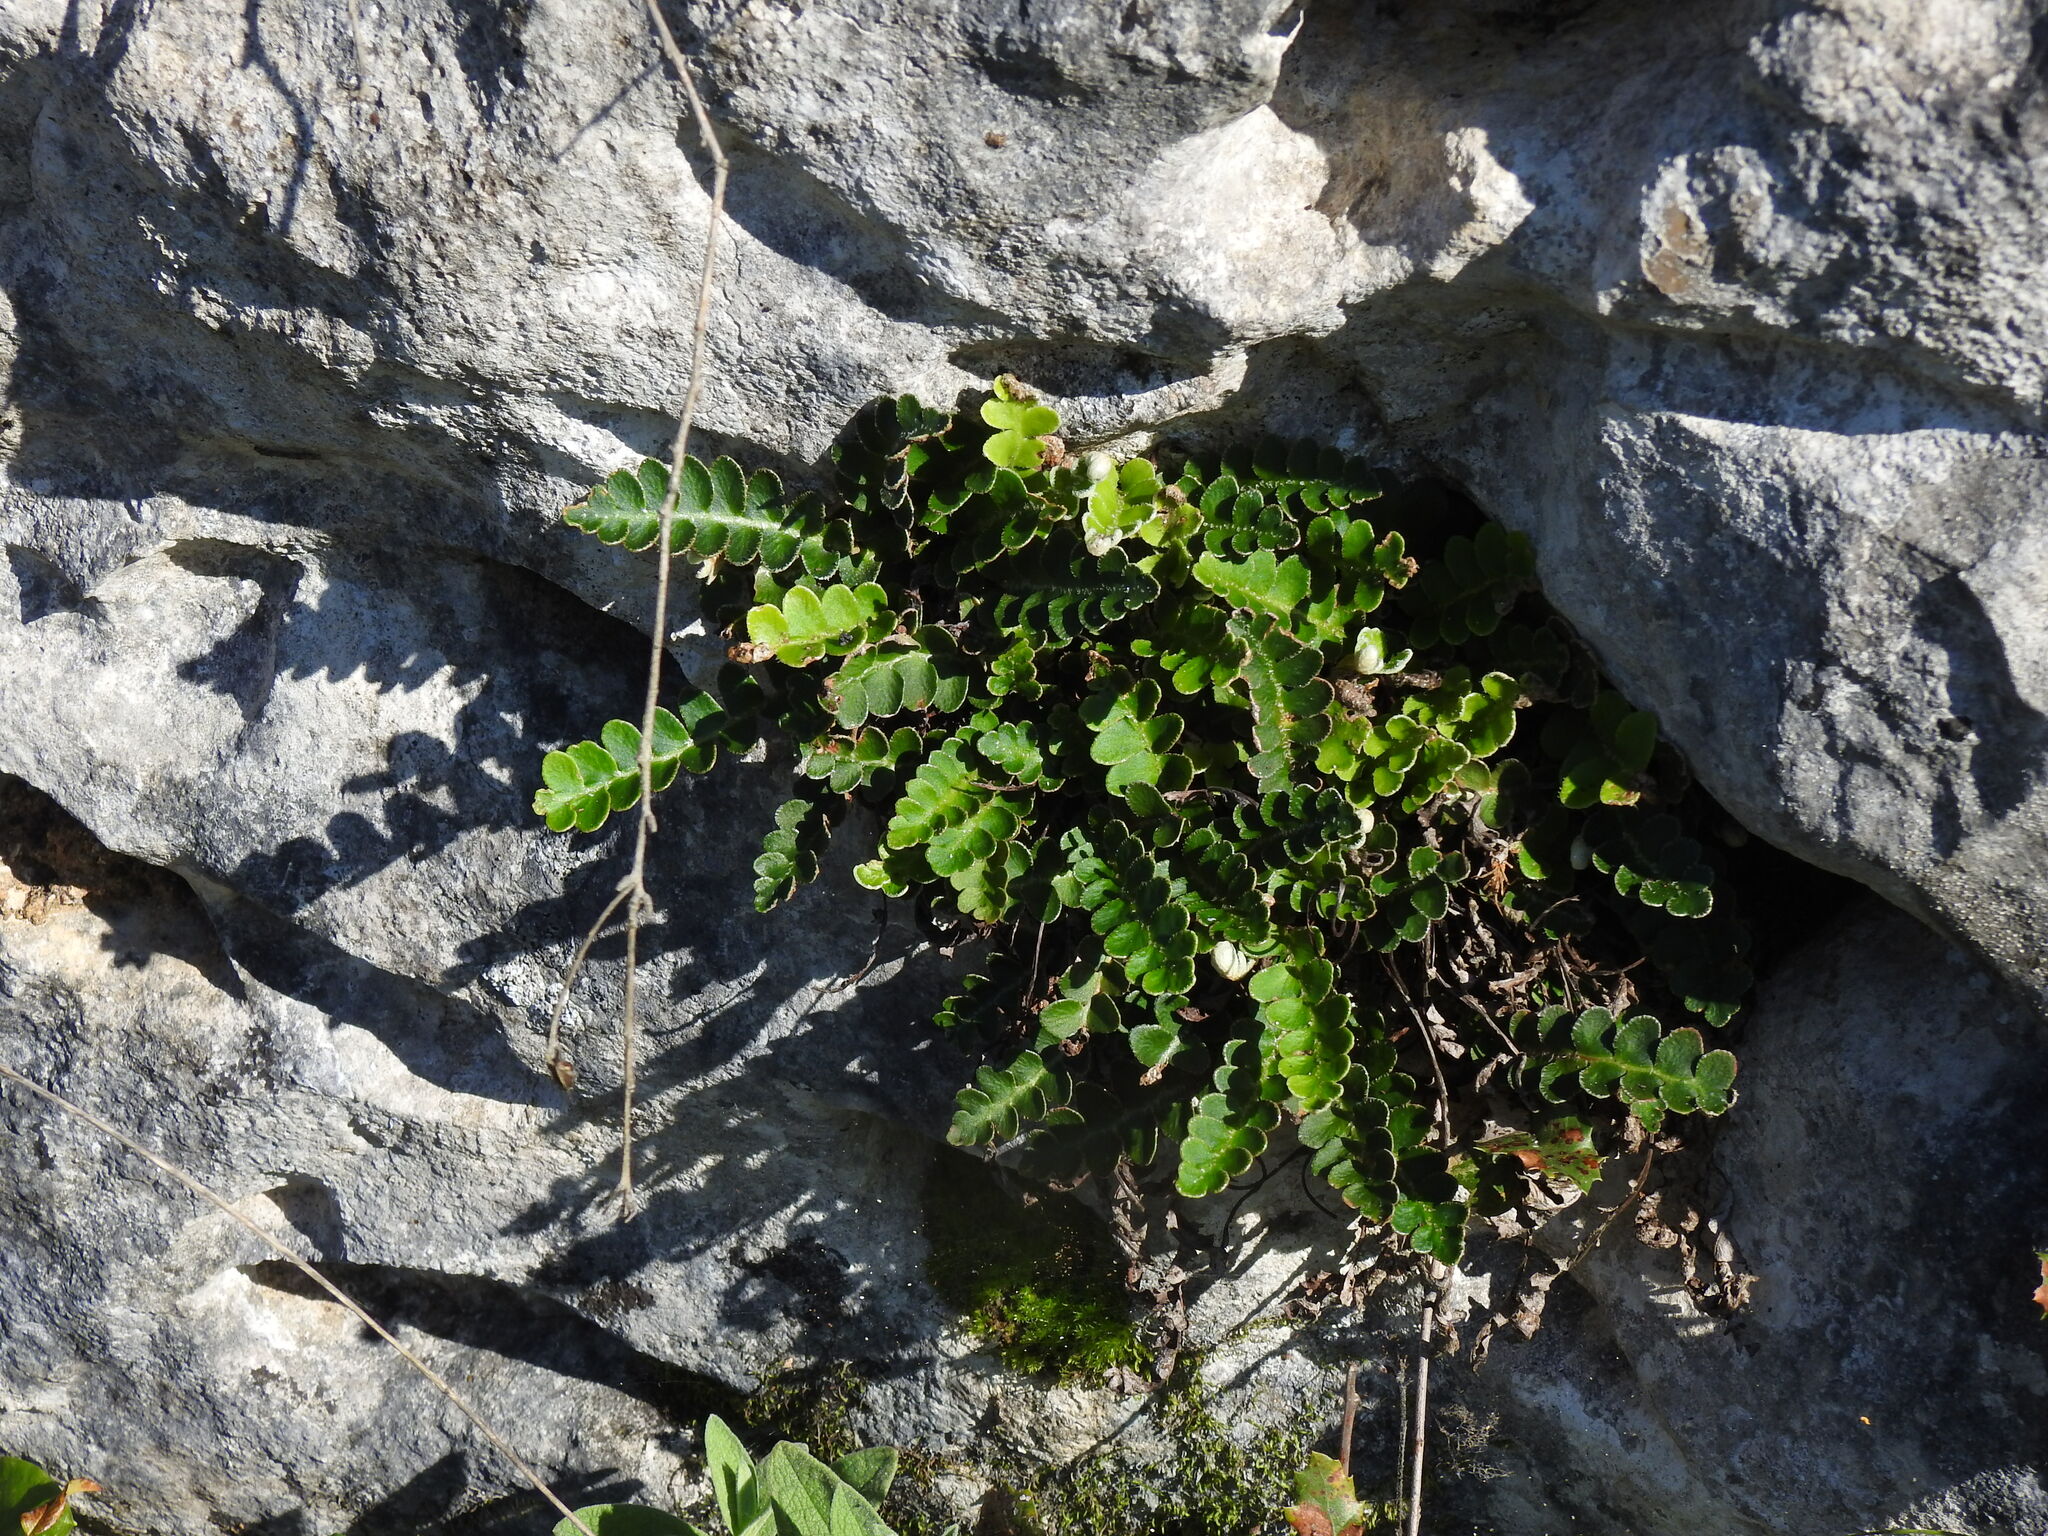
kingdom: Plantae
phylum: Tracheophyta
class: Polypodiopsida
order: Polypodiales
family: Aspleniaceae
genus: Asplenium
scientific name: Asplenium ceterach
